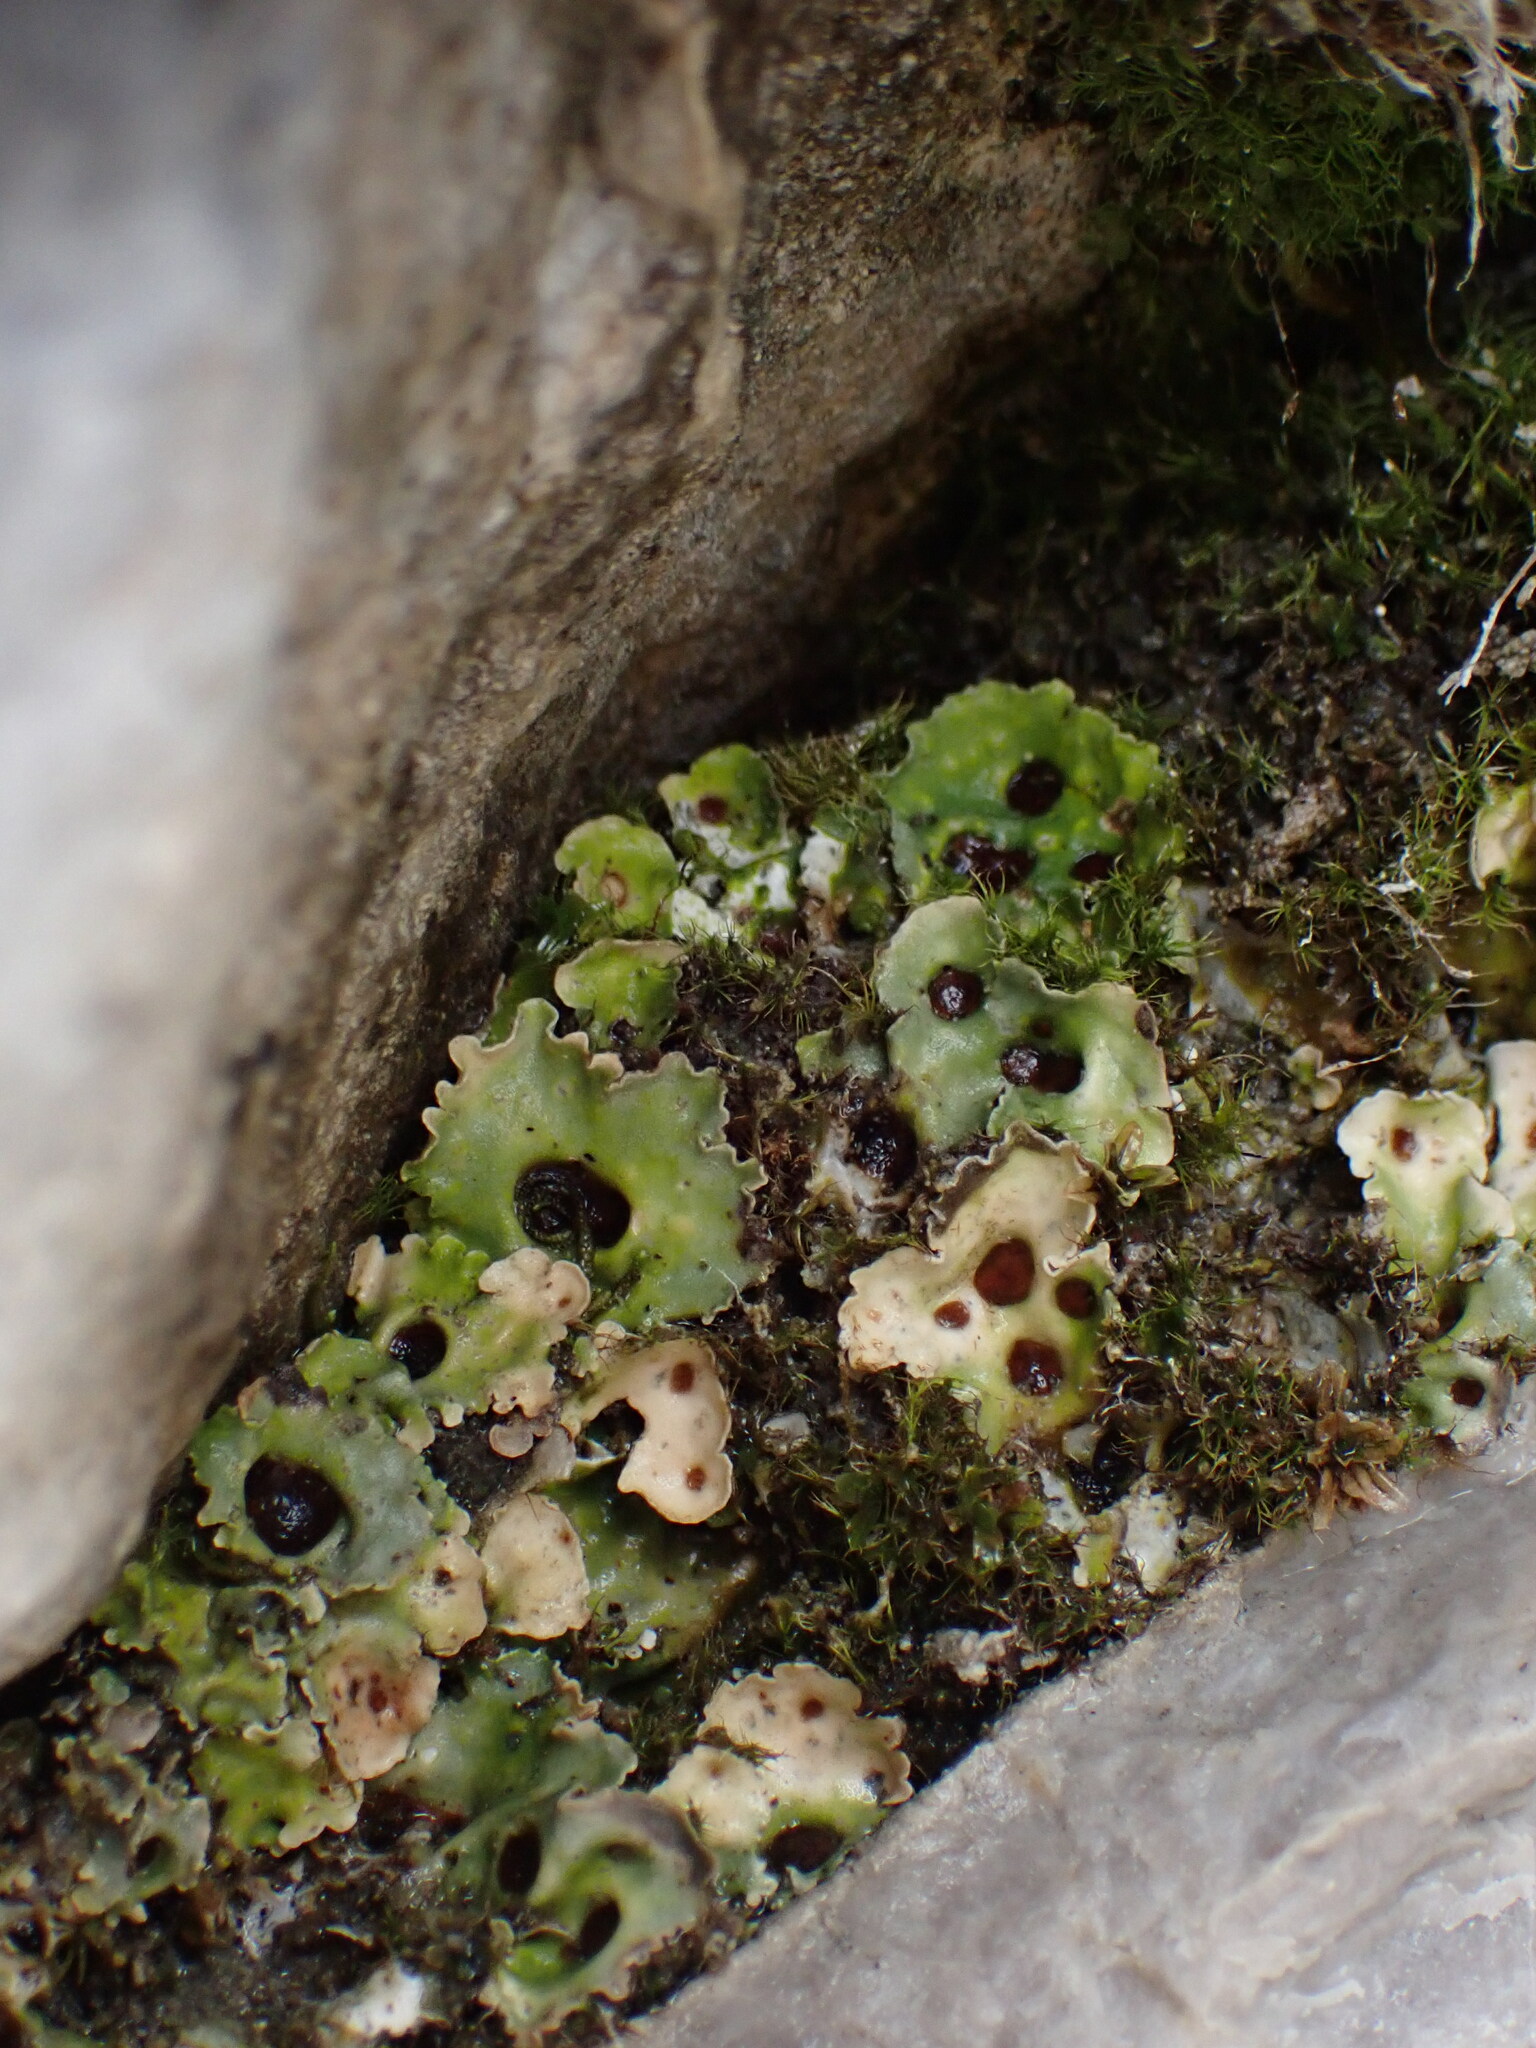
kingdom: Fungi
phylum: Ascomycota
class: Lecanoromycetes
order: Peltigerales
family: Peltigeraceae
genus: Solorina
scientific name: Solorina saccata
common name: Common chocolate chip lichen
